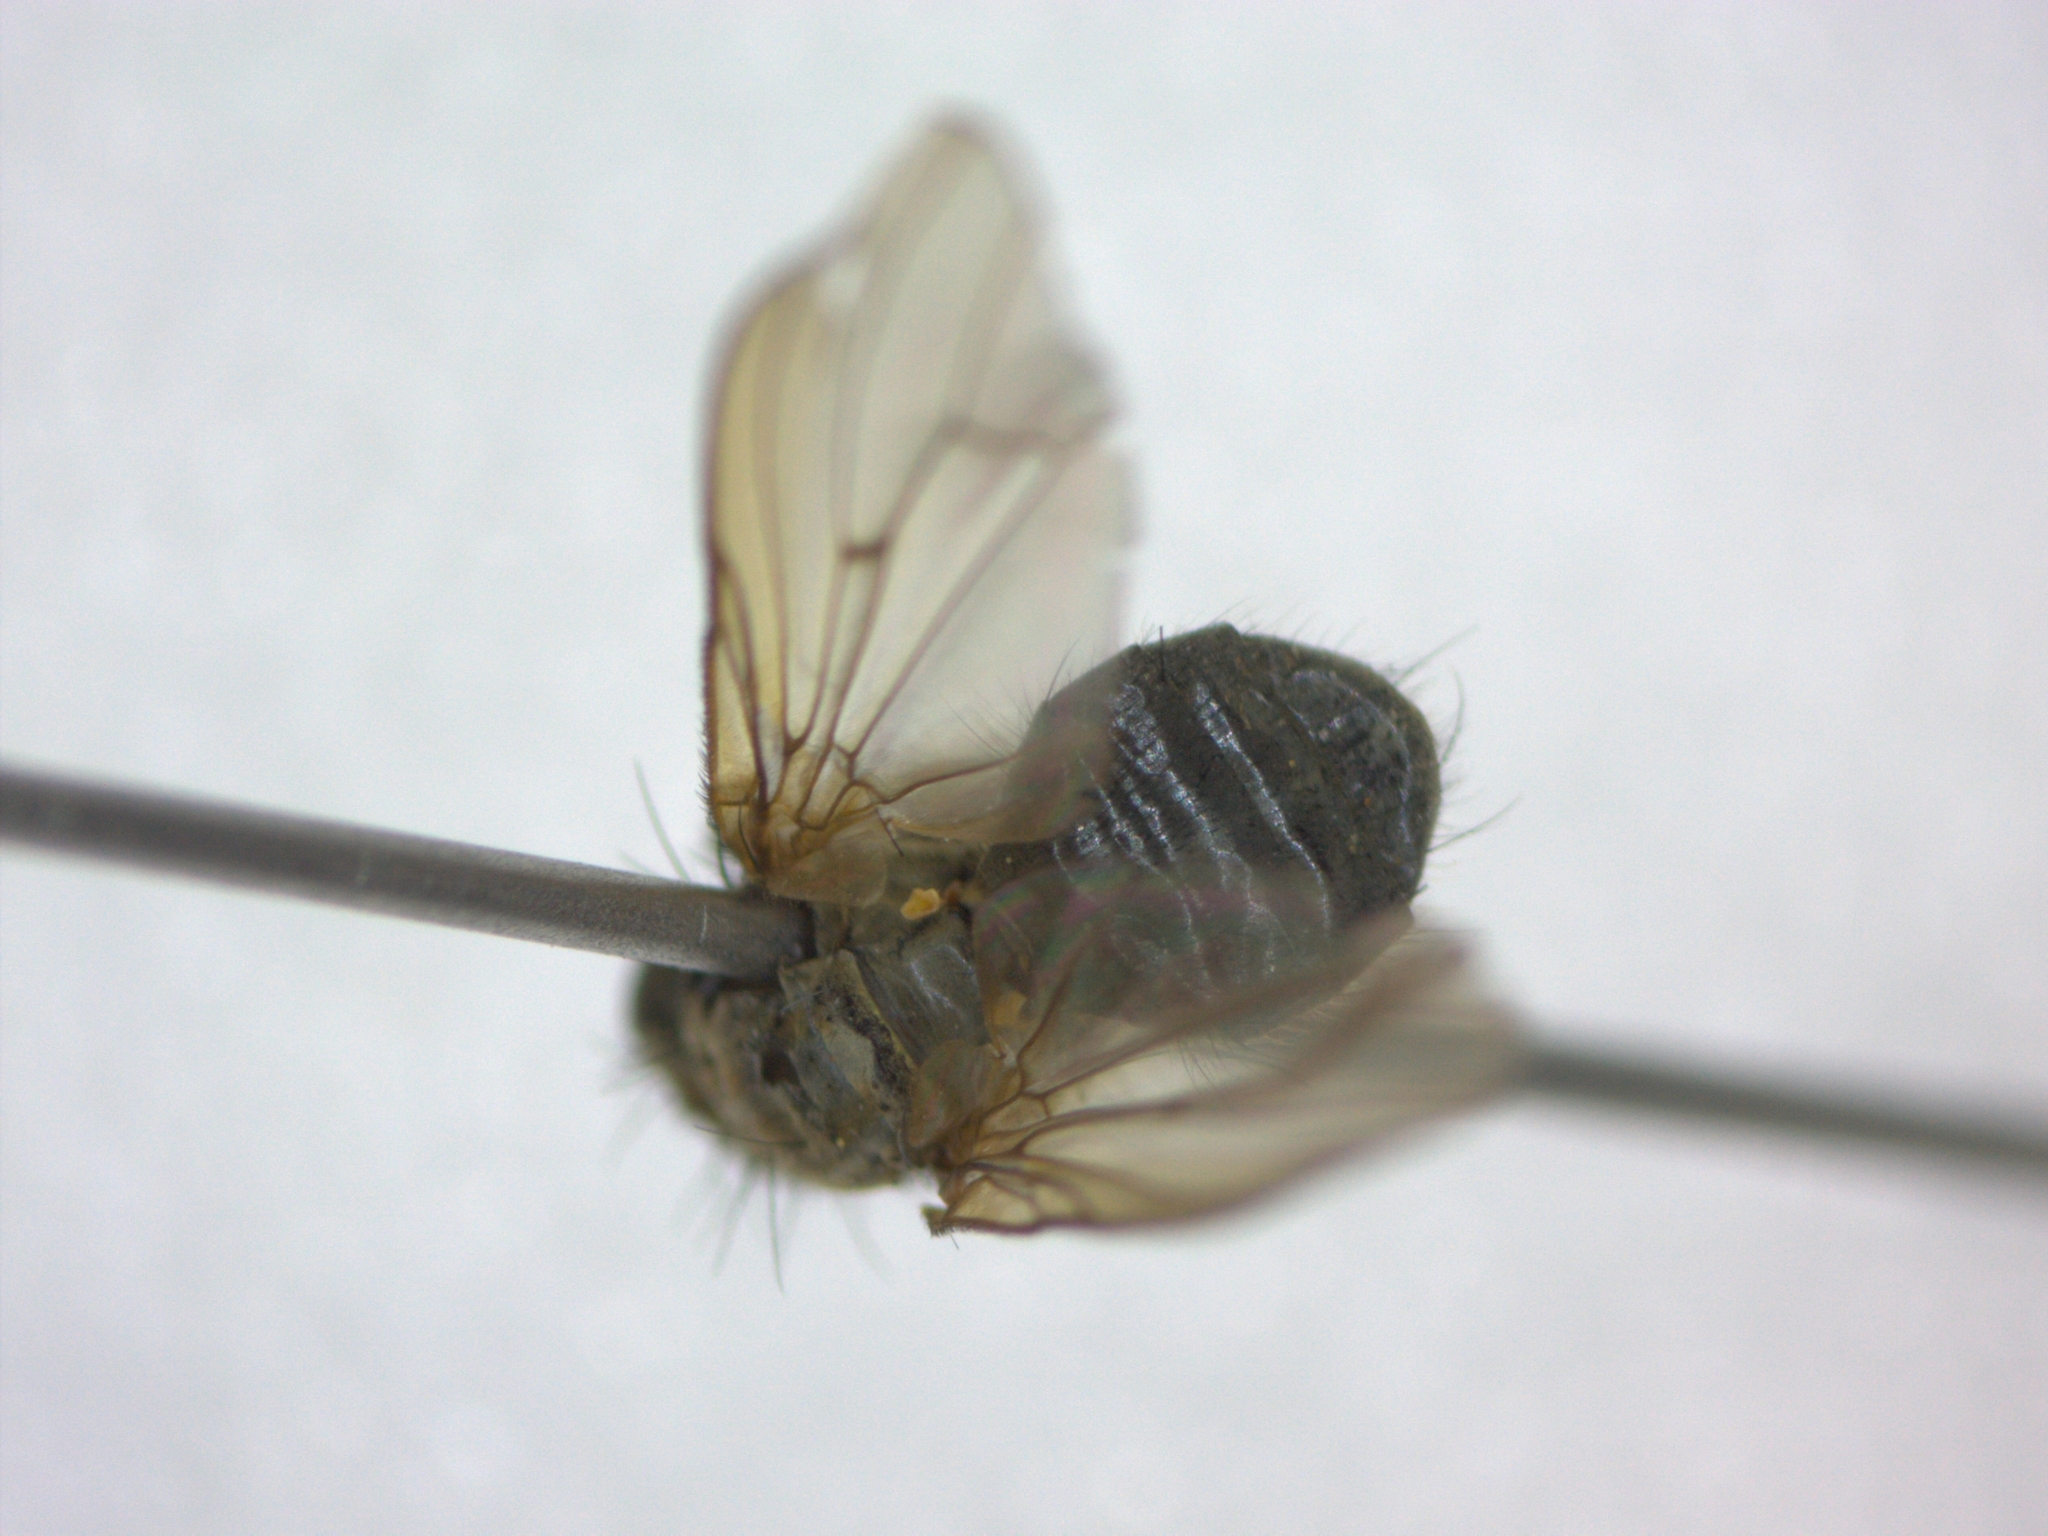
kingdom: Animalia
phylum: Arthropoda
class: Insecta
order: Diptera
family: Scathophagidae
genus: Scathophaga
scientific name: Scathophaga stercoraria
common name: Yellow dung fly
